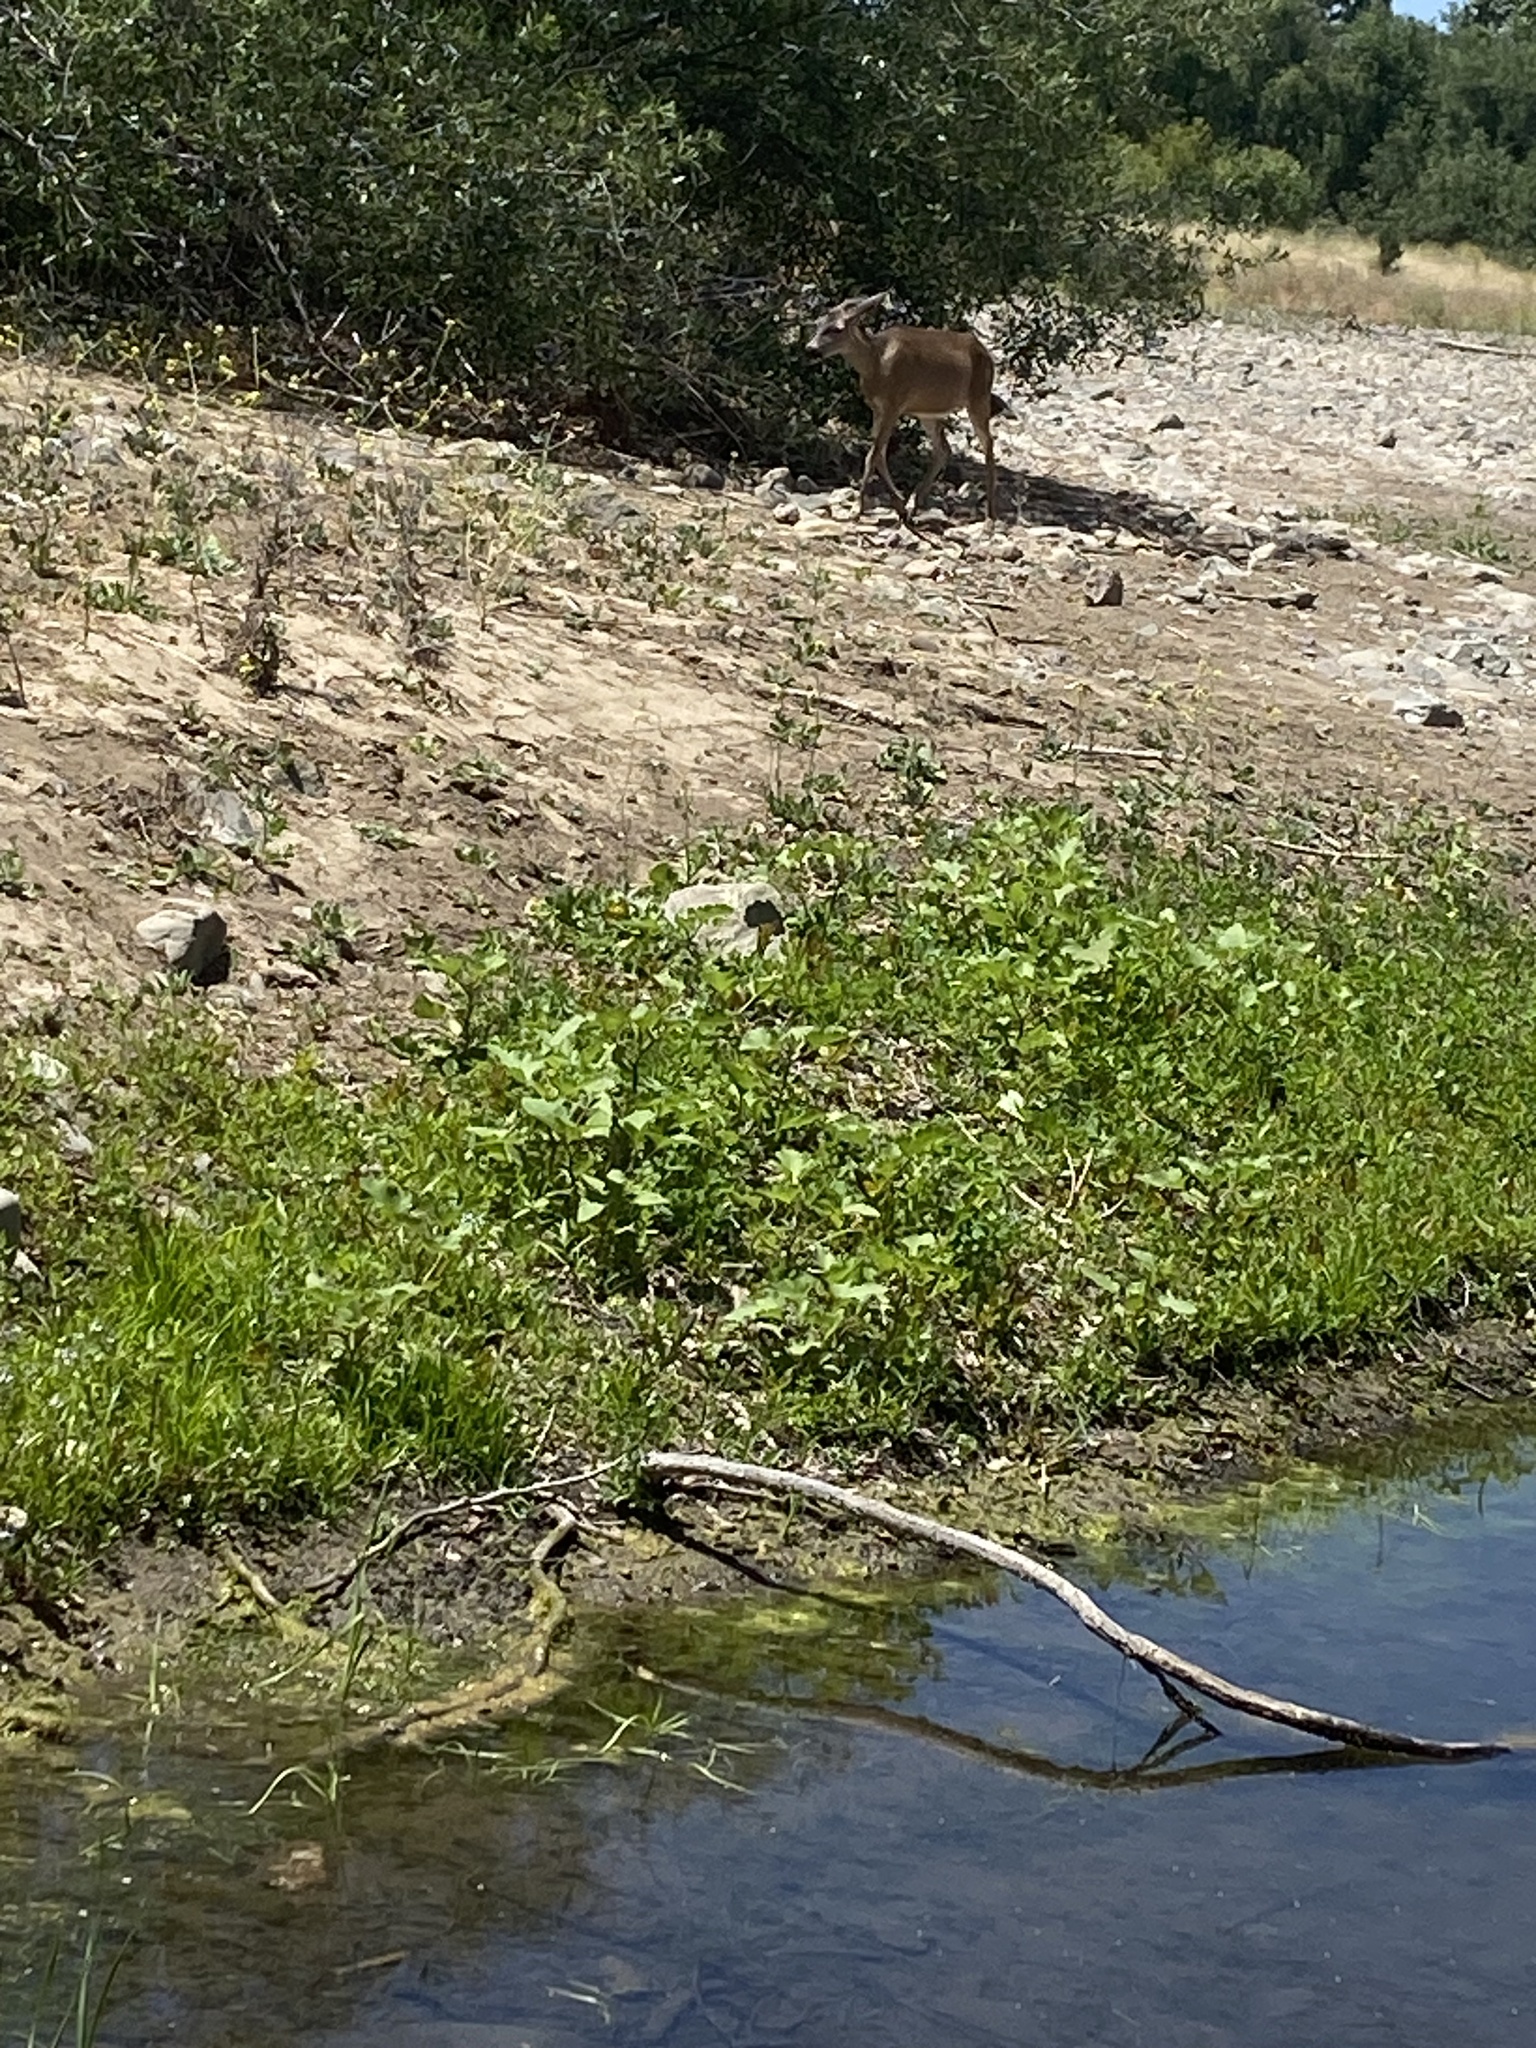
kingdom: Animalia
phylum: Chordata
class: Mammalia
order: Artiodactyla
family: Cervidae
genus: Odocoileus
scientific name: Odocoileus hemionus
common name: Mule deer
